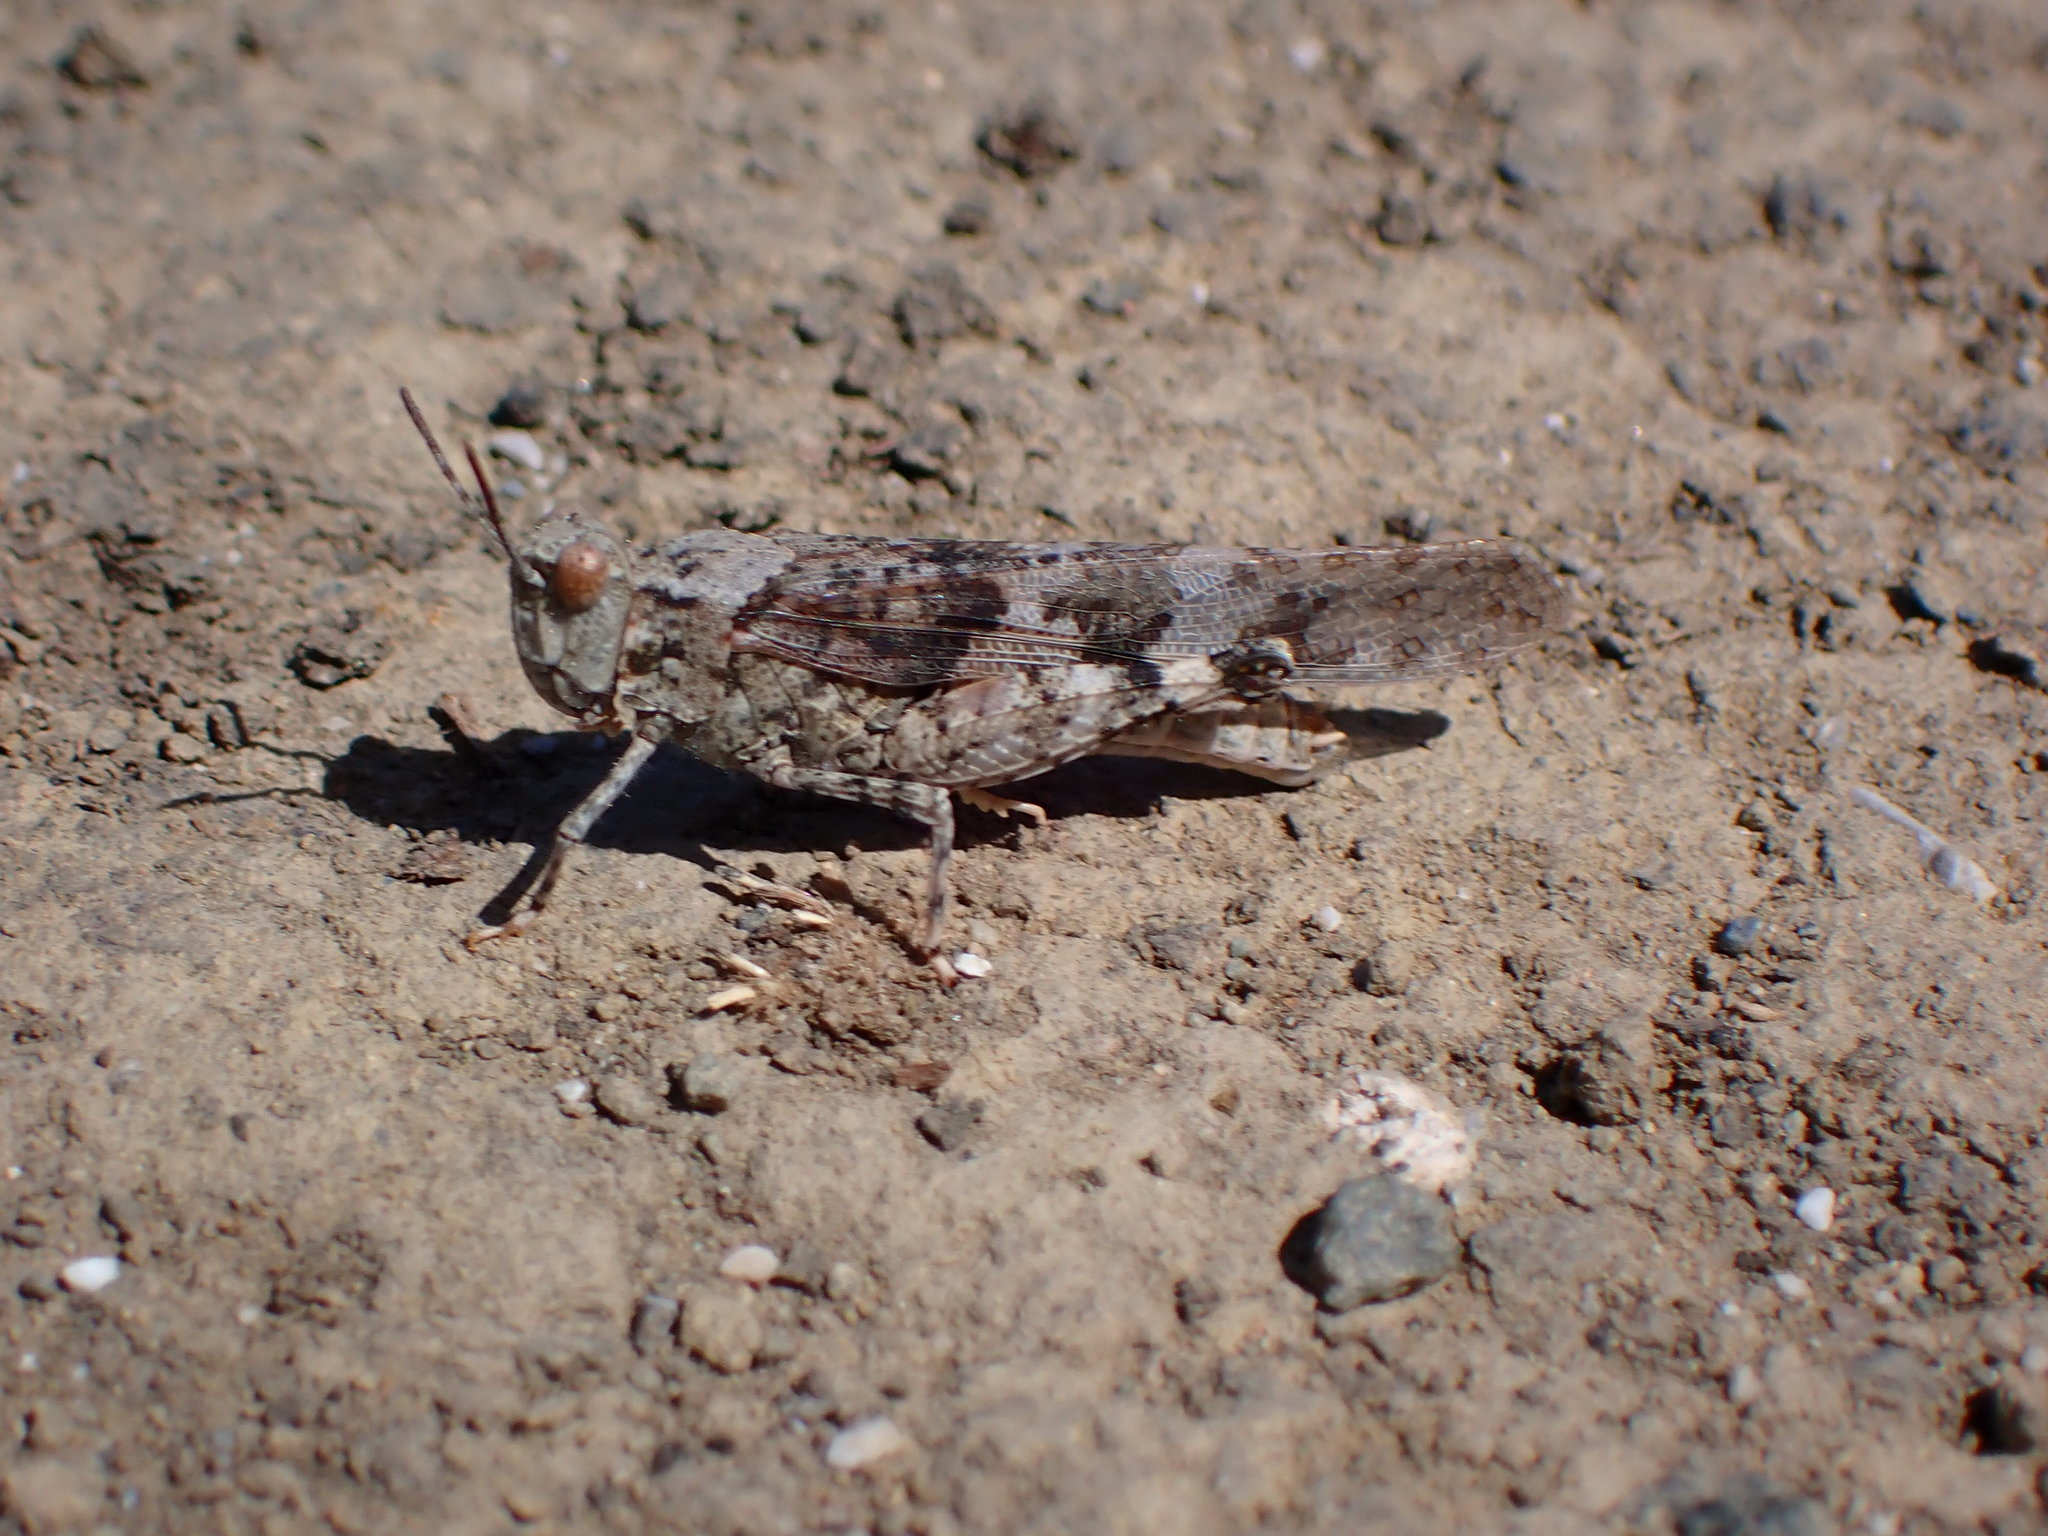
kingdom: Animalia
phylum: Arthropoda
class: Insecta
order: Orthoptera
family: Acrididae
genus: Trimerotropis
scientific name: Trimerotropis pallidipennis
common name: Pallid-winged grasshopper
